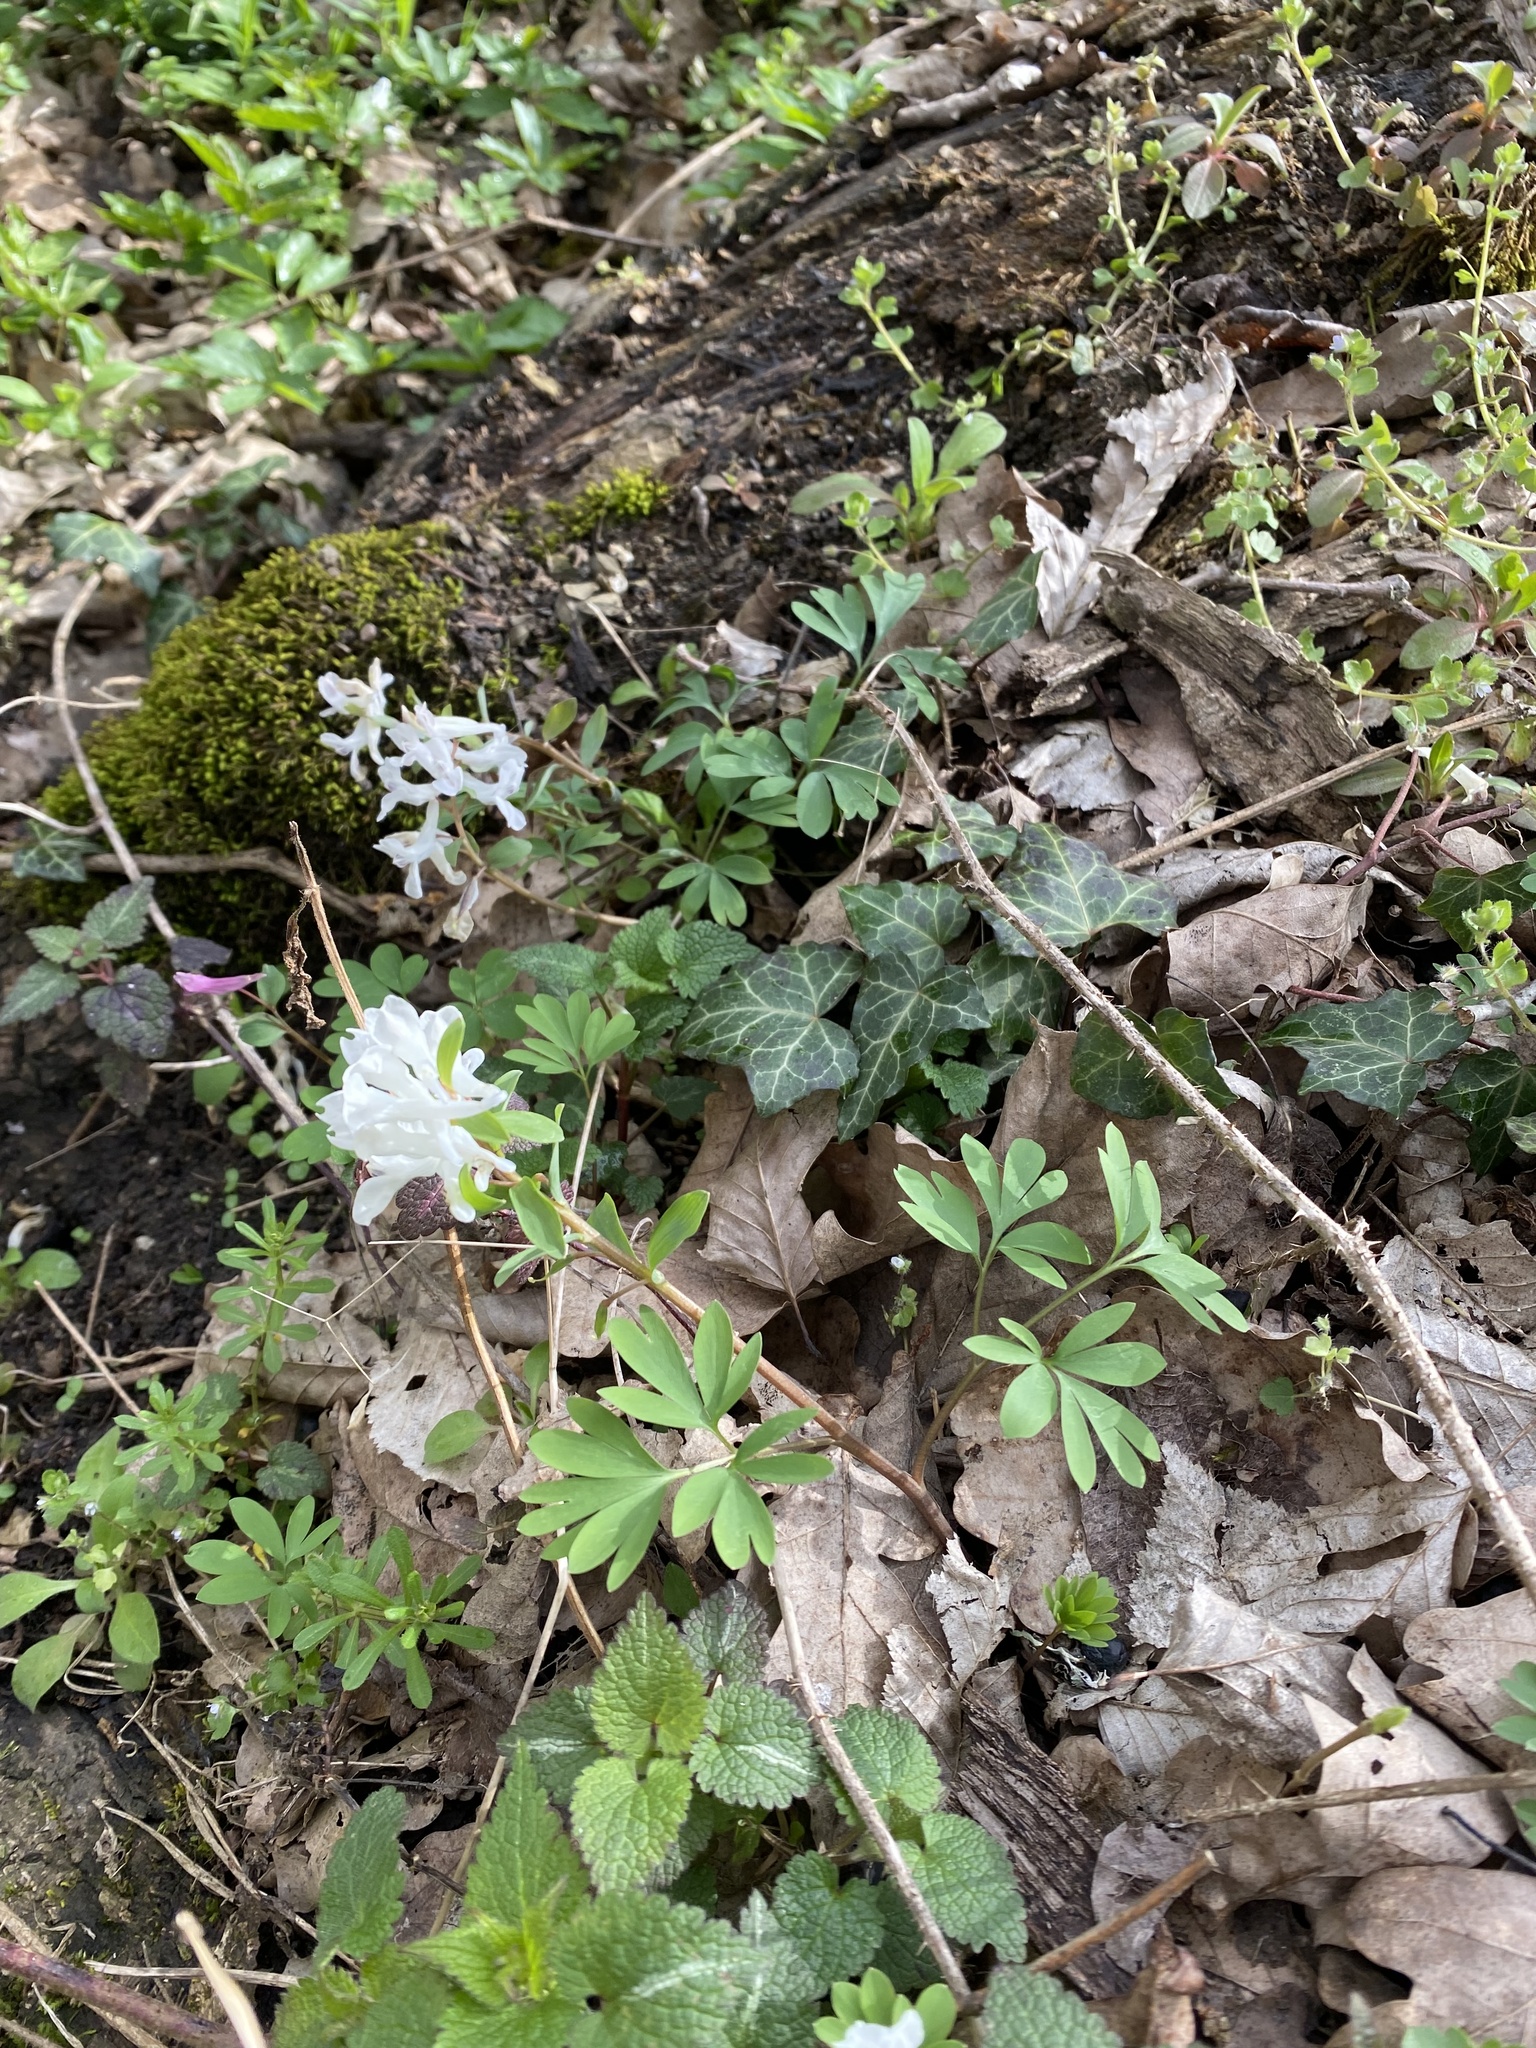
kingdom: Plantae
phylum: Tracheophyta
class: Magnoliopsida
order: Apiales
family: Araliaceae
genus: Hedera
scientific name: Hedera helix
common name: Ivy
